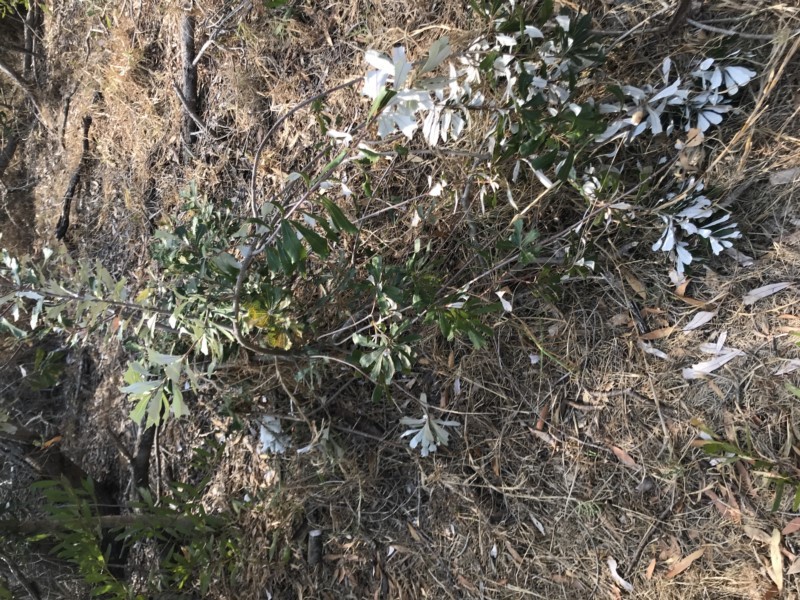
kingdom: Plantae
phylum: Tracheophyta
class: Magnoliopsida
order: Proteales
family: Proteaceae
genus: Banksia
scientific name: Banksia integrifolia
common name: White-honeysuckle
